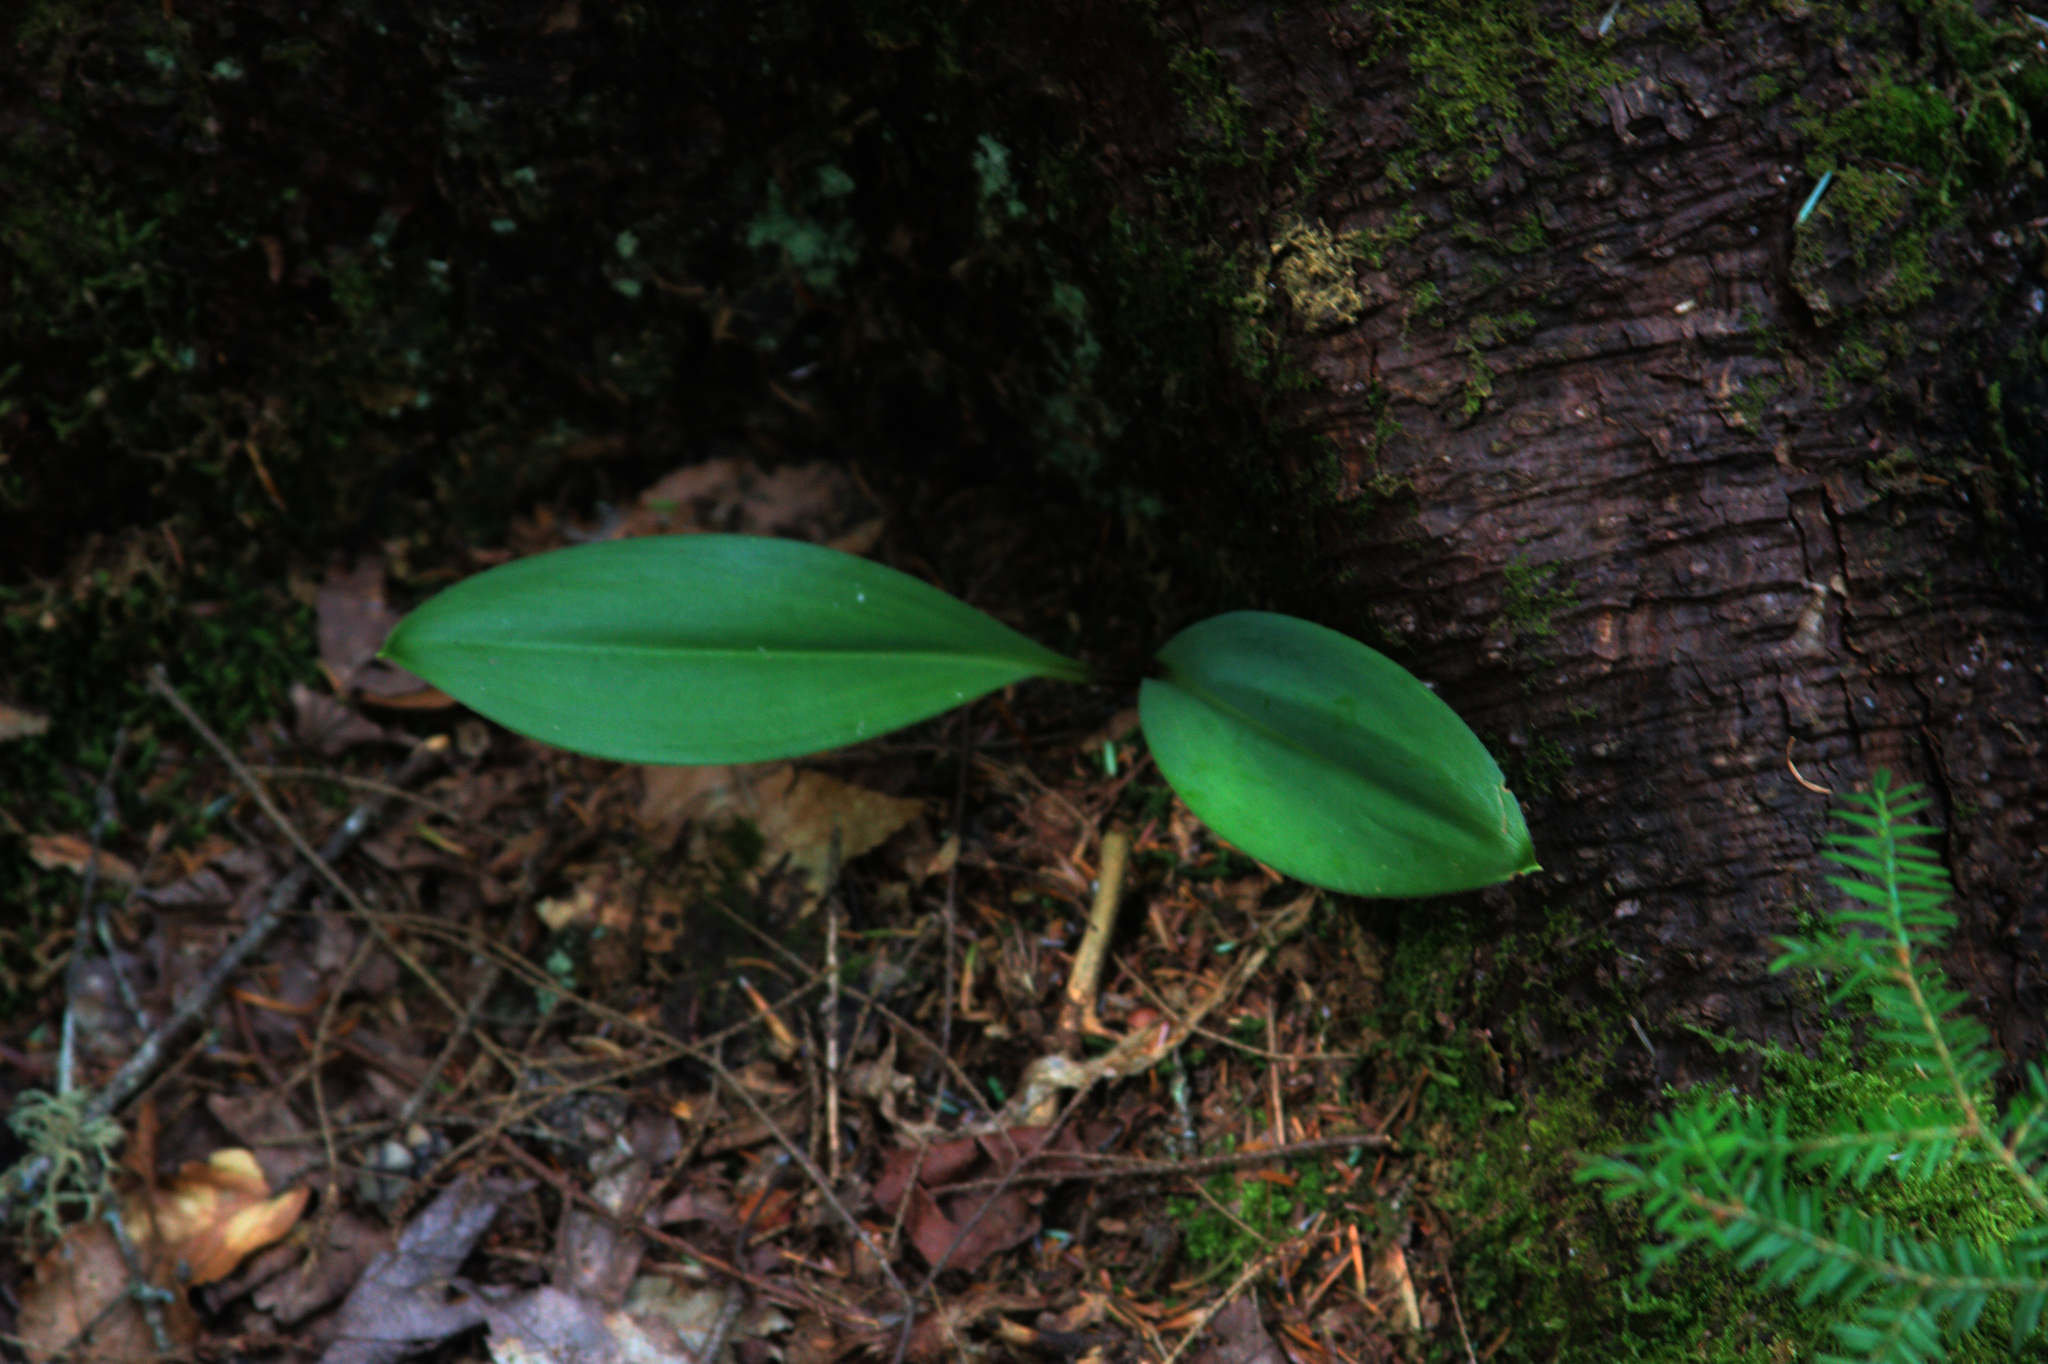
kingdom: Plantae
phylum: Tracheophyta
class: Liliopsida
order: Liliales
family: Liliaceae
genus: Clintonia
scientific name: Clintonia borealis
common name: Yellow clintonia
